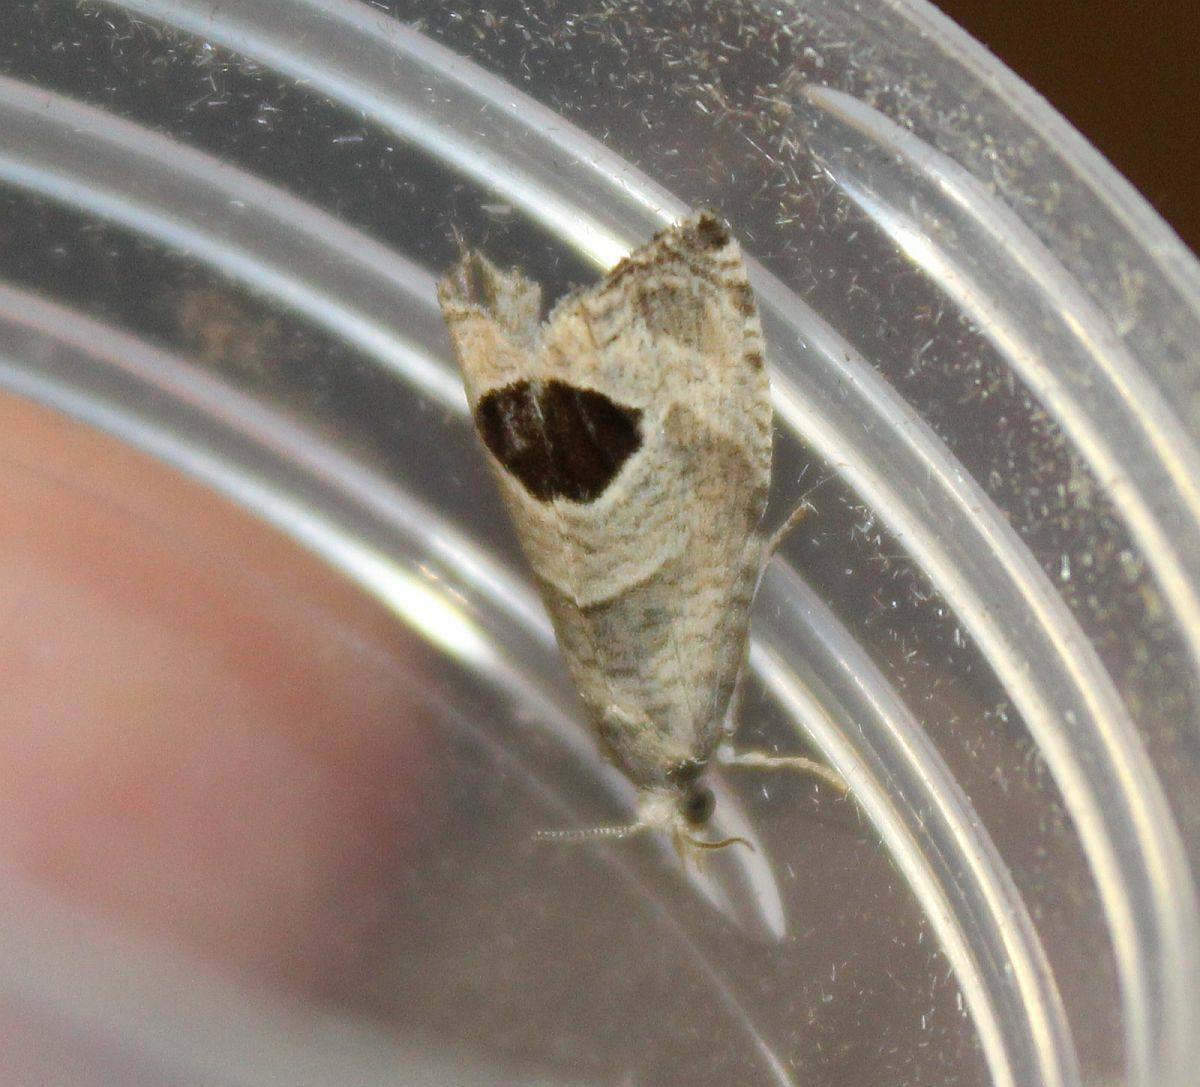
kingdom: Animalia
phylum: Arthropoda
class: Insecta
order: Lepidoptera
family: Tortricidae
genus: Notocelia
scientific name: Notocelia uddmanniana
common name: Bramble shoot moth
